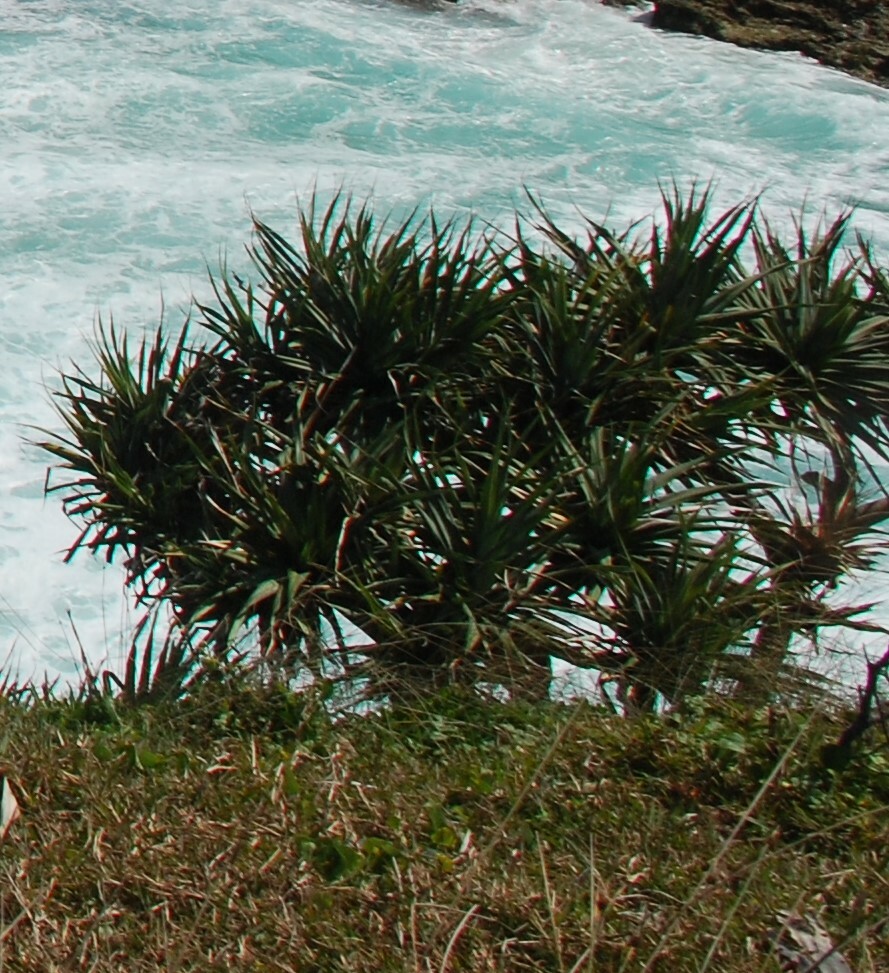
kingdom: Plantae
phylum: Tracheophyta
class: Liliopsida
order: Pandanales
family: Pandanaceae
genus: Pandanus
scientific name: Pandanus tectorius
